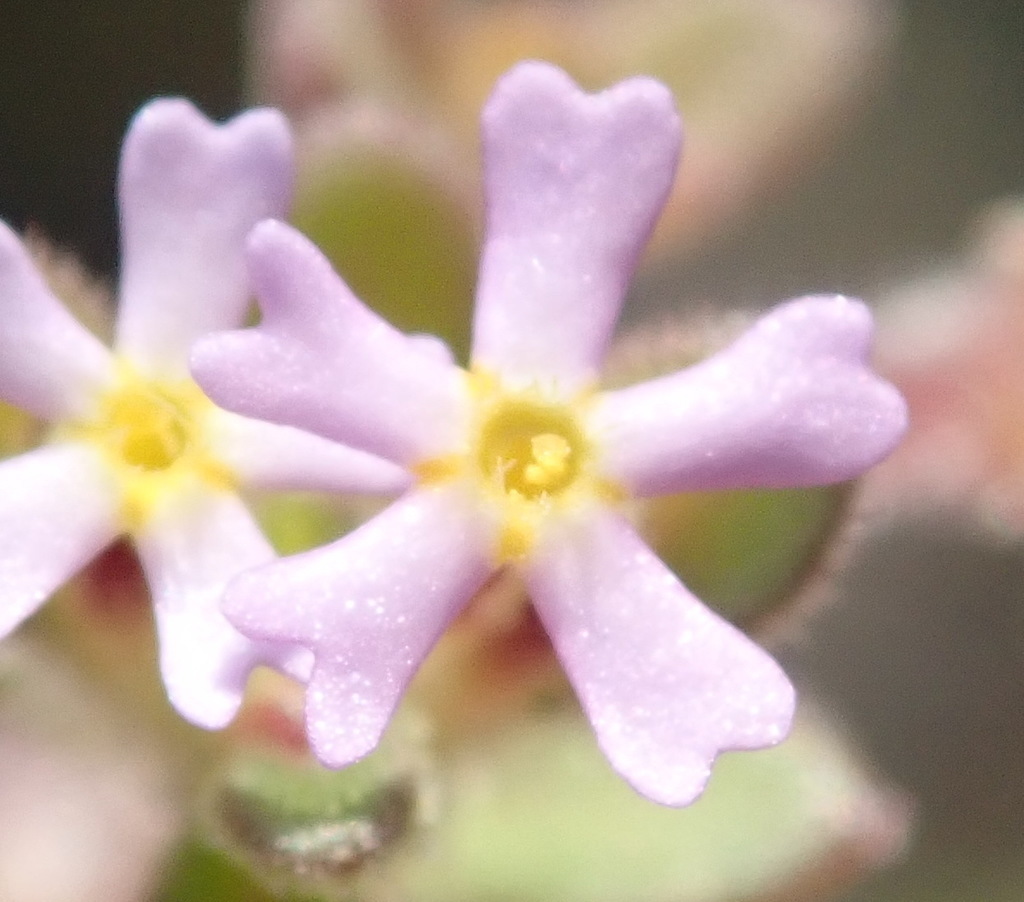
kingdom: Plantae
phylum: Tracheophyta
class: Magnoliopsida
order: Lamiales
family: Scrophulariaceae
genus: Zaluzianskya
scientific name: Zaluzianskya gracilis
